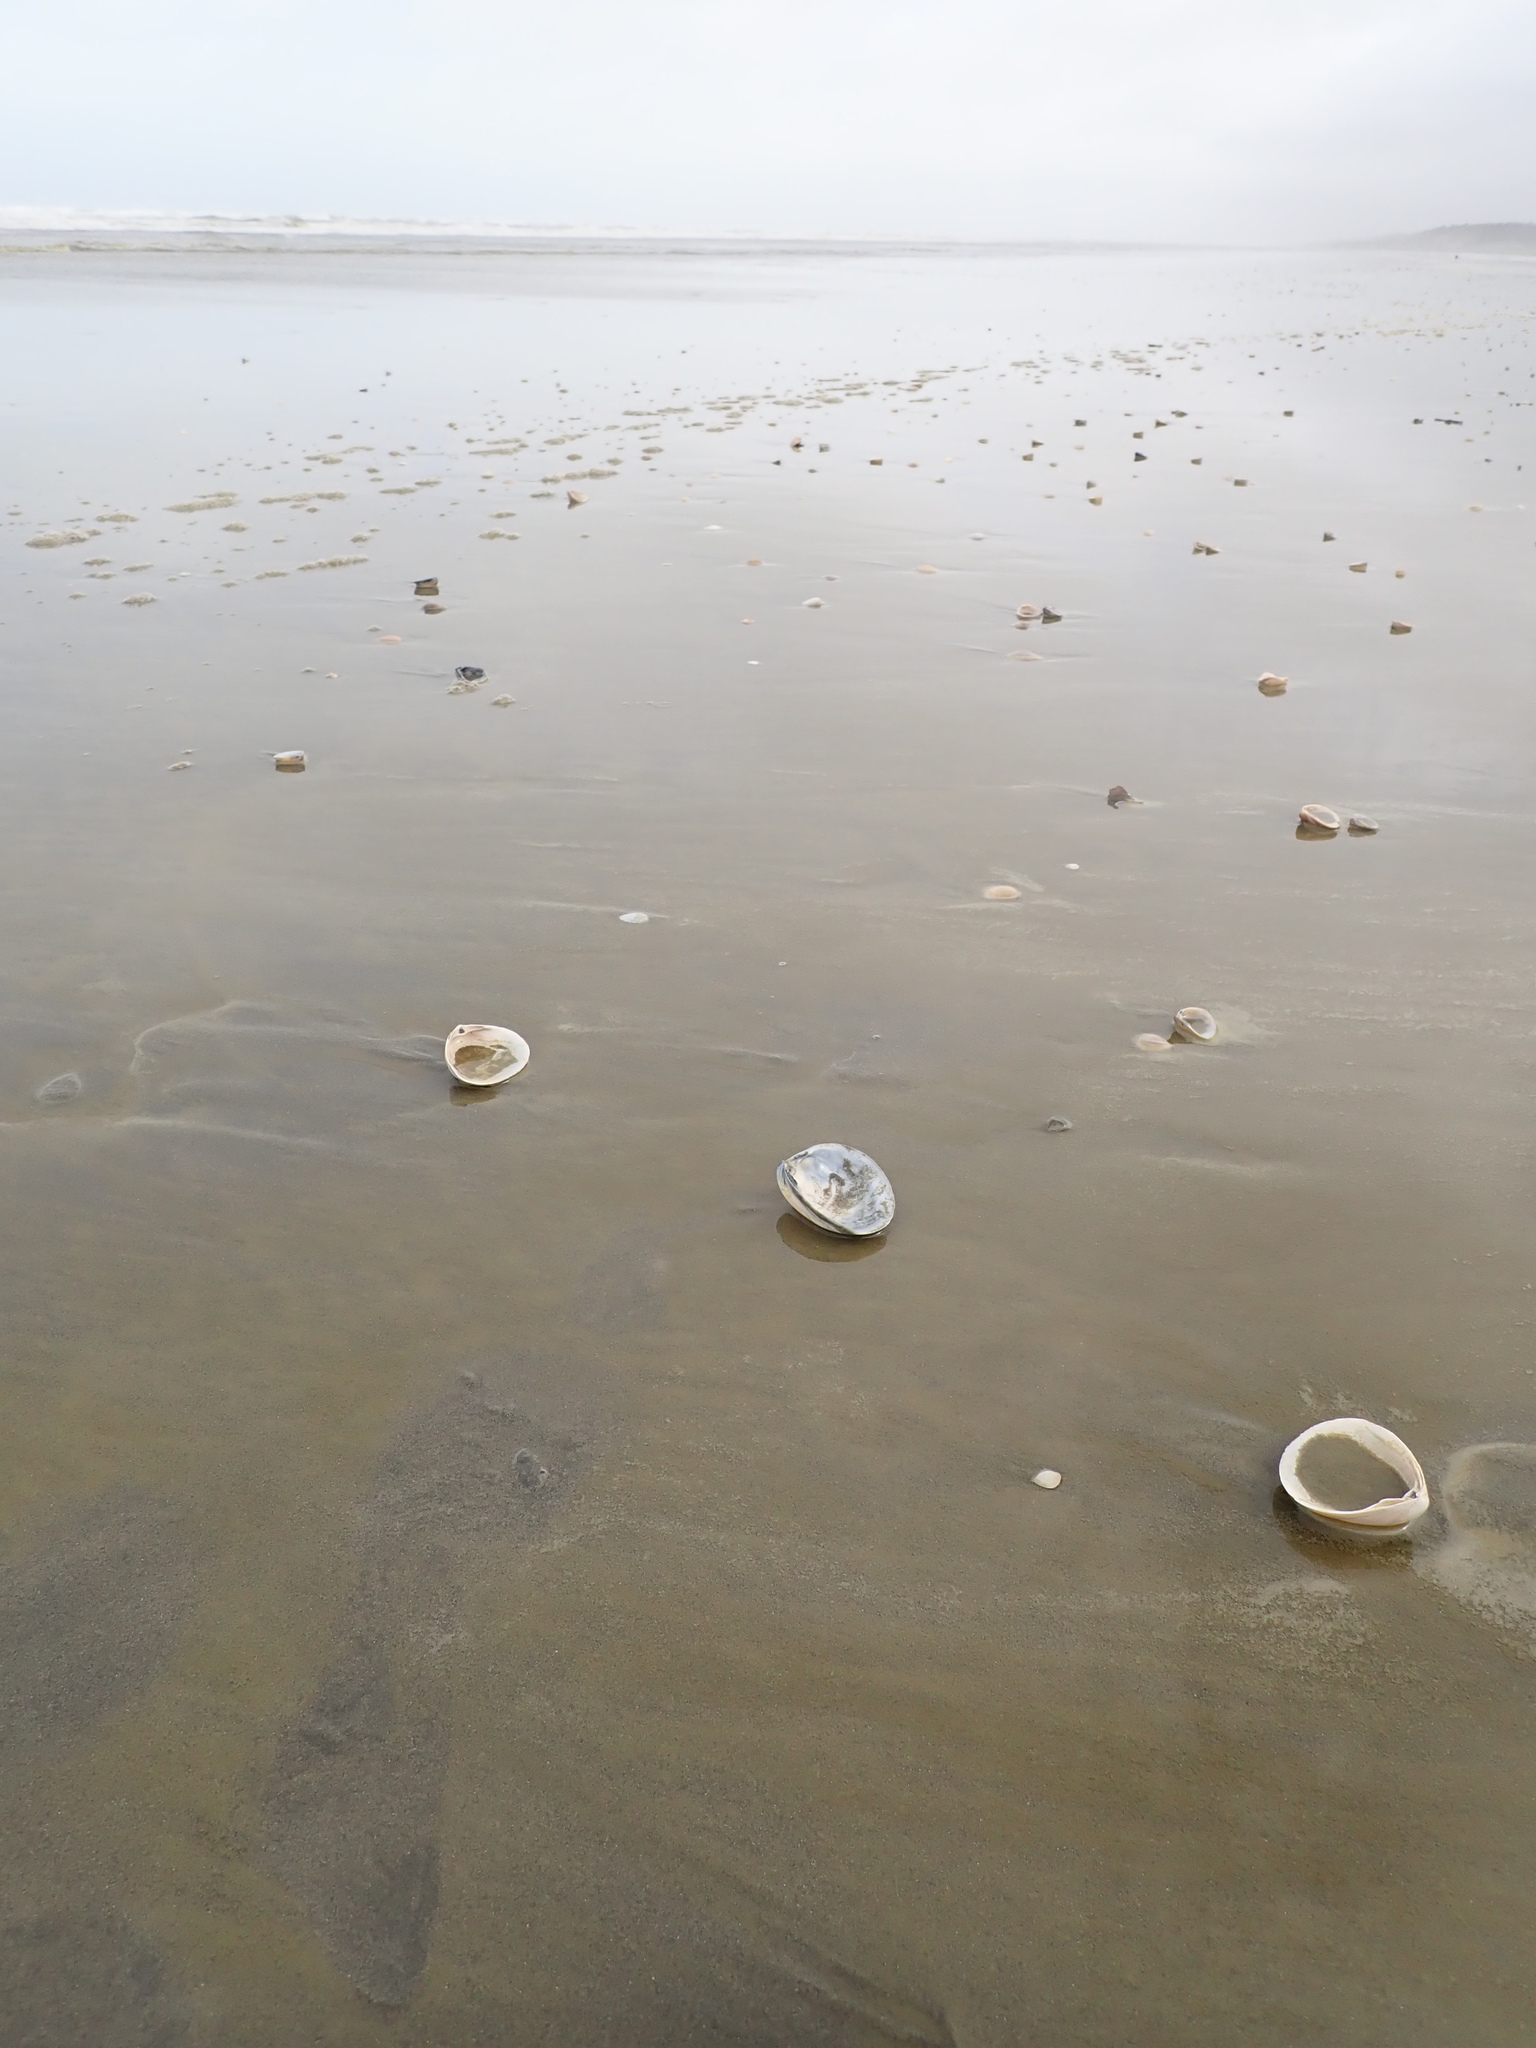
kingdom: Animalia
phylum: Mollusca
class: Bivalvia
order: Venerida
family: Mactridae
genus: Spisula
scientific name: Spisula murchisoni
